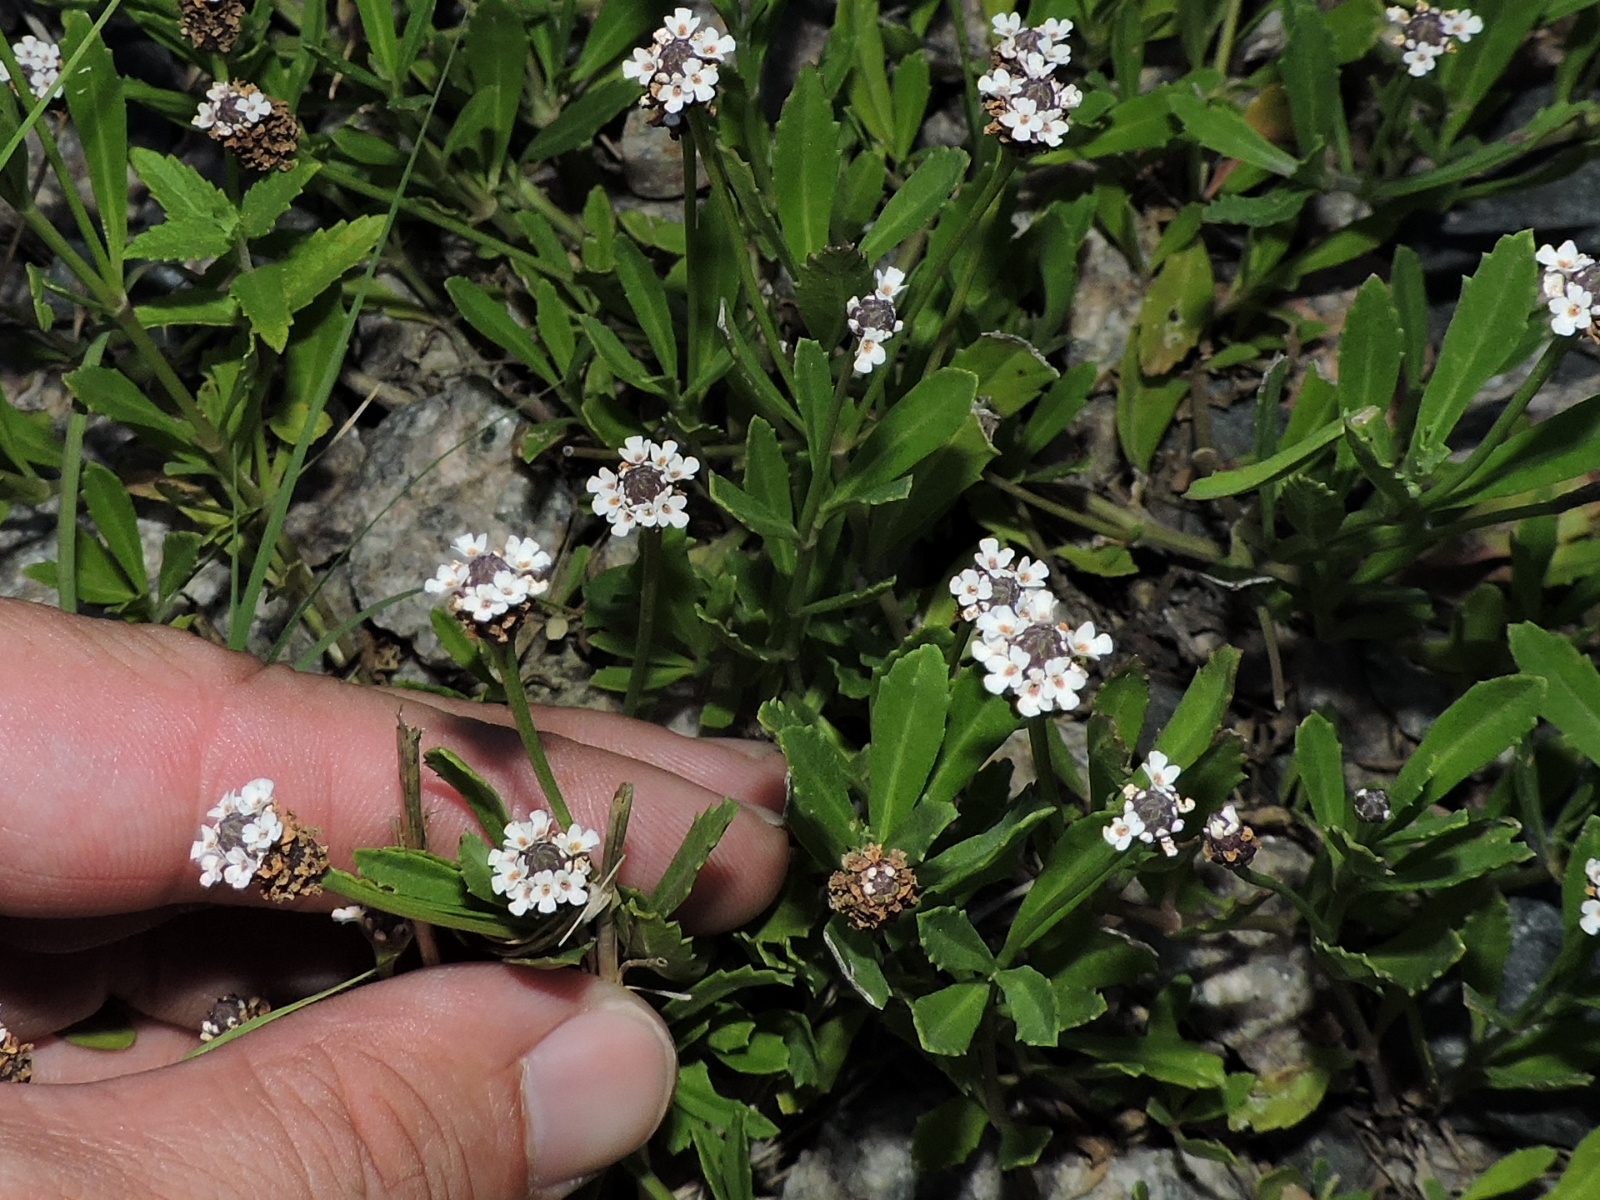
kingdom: Plantae
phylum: Tracheophyta
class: Magnoliopsida
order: Lamiales
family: Verbenaceae
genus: Phyla
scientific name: Phyla nodiflora
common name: Frogfruit
